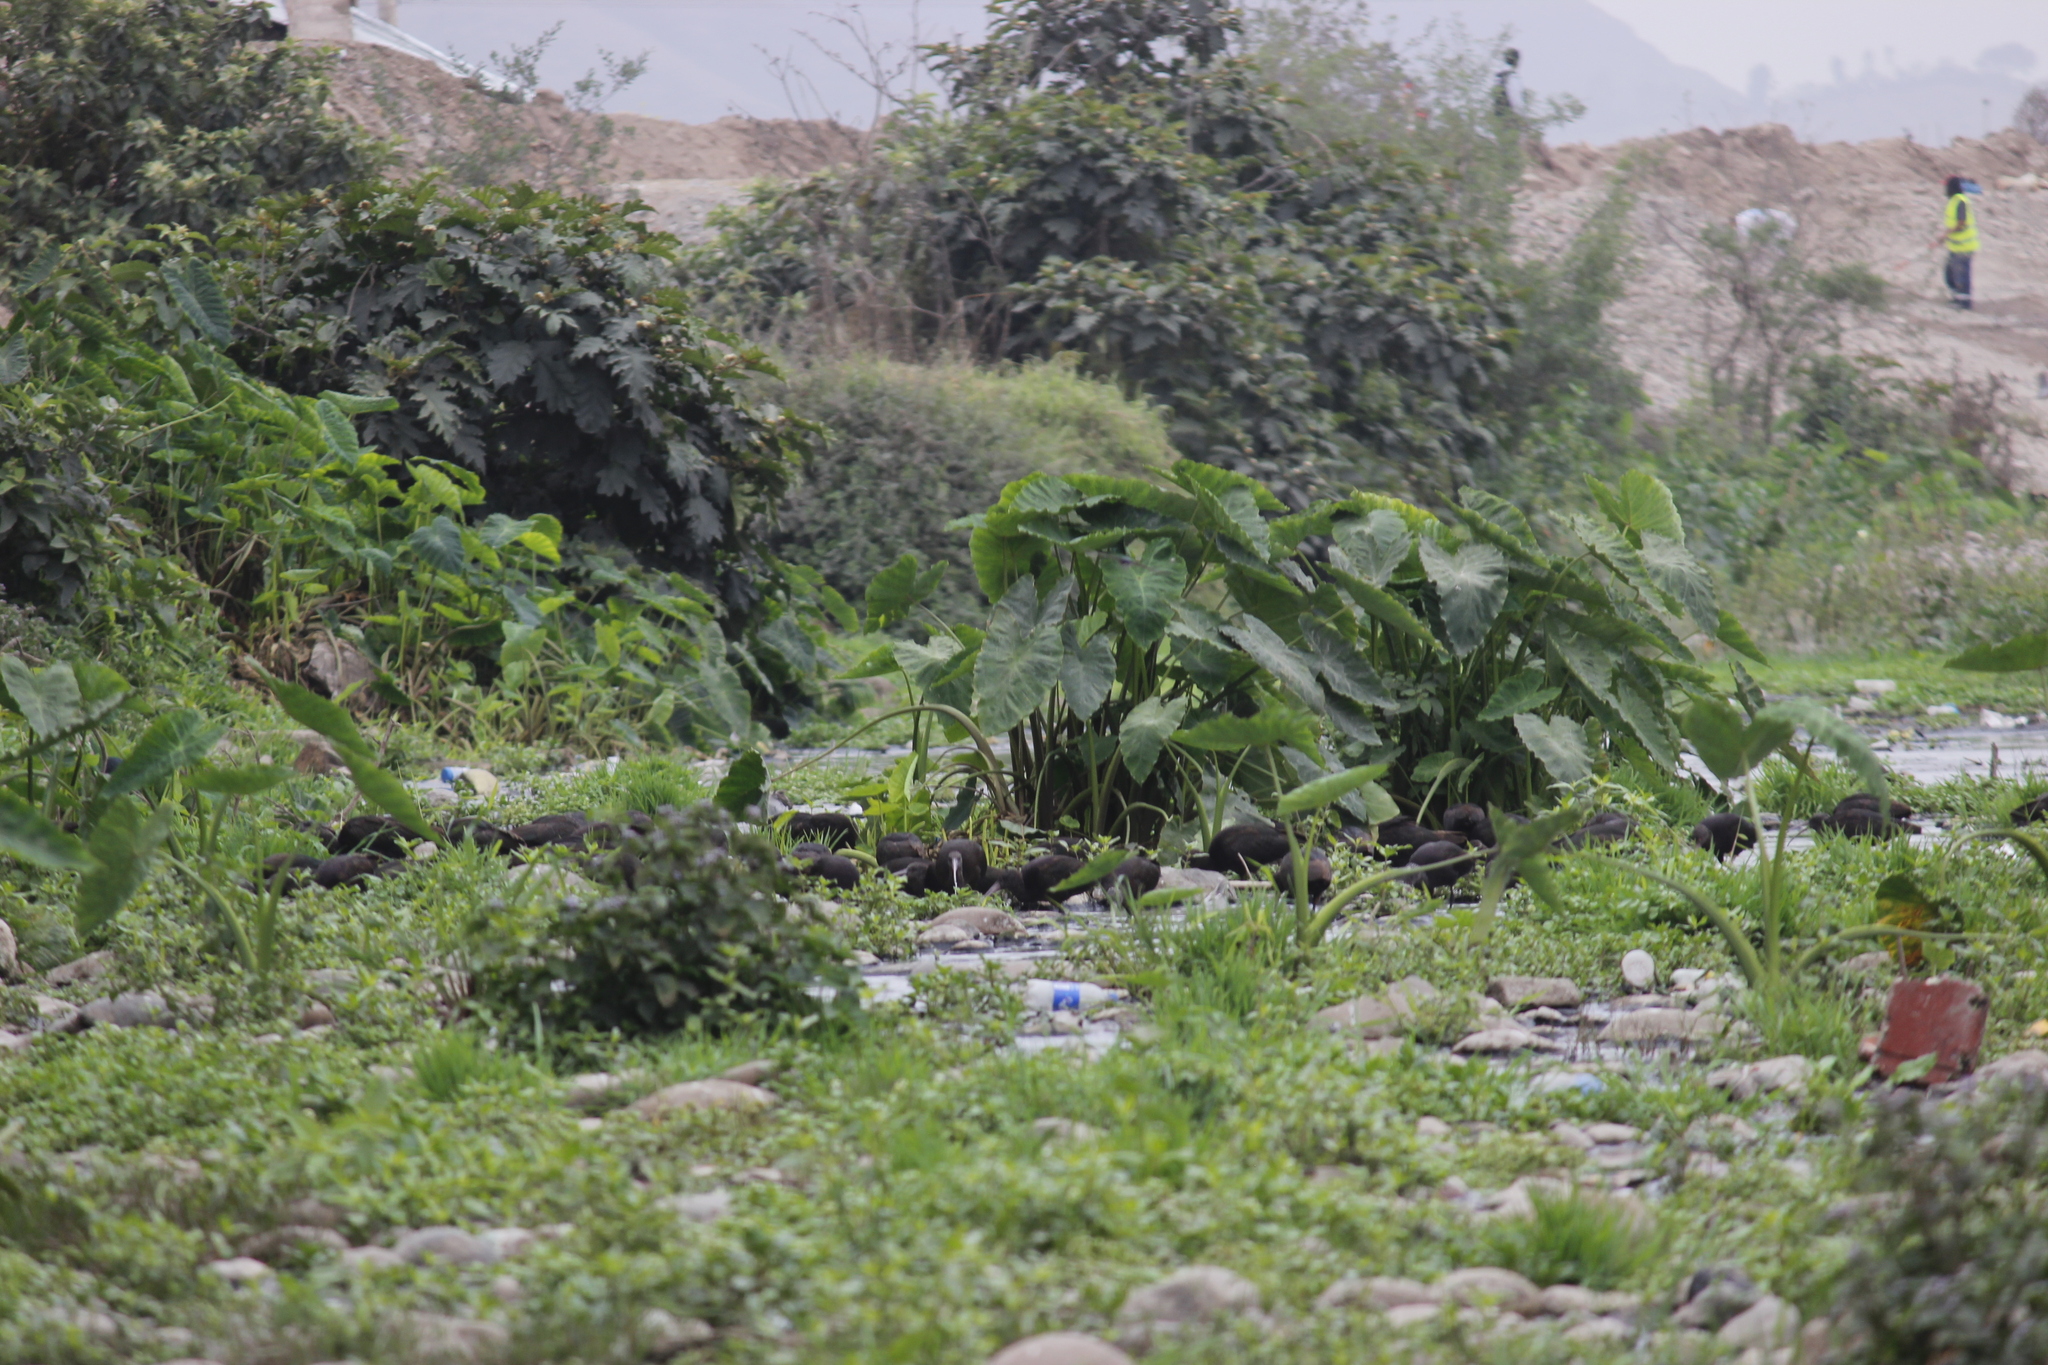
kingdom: Animalia
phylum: Chordata
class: Aves
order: Pelecaniformes
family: Threskiornithidae
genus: Plegadis
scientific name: Plegadis ridgwayi
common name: Puna ibis
